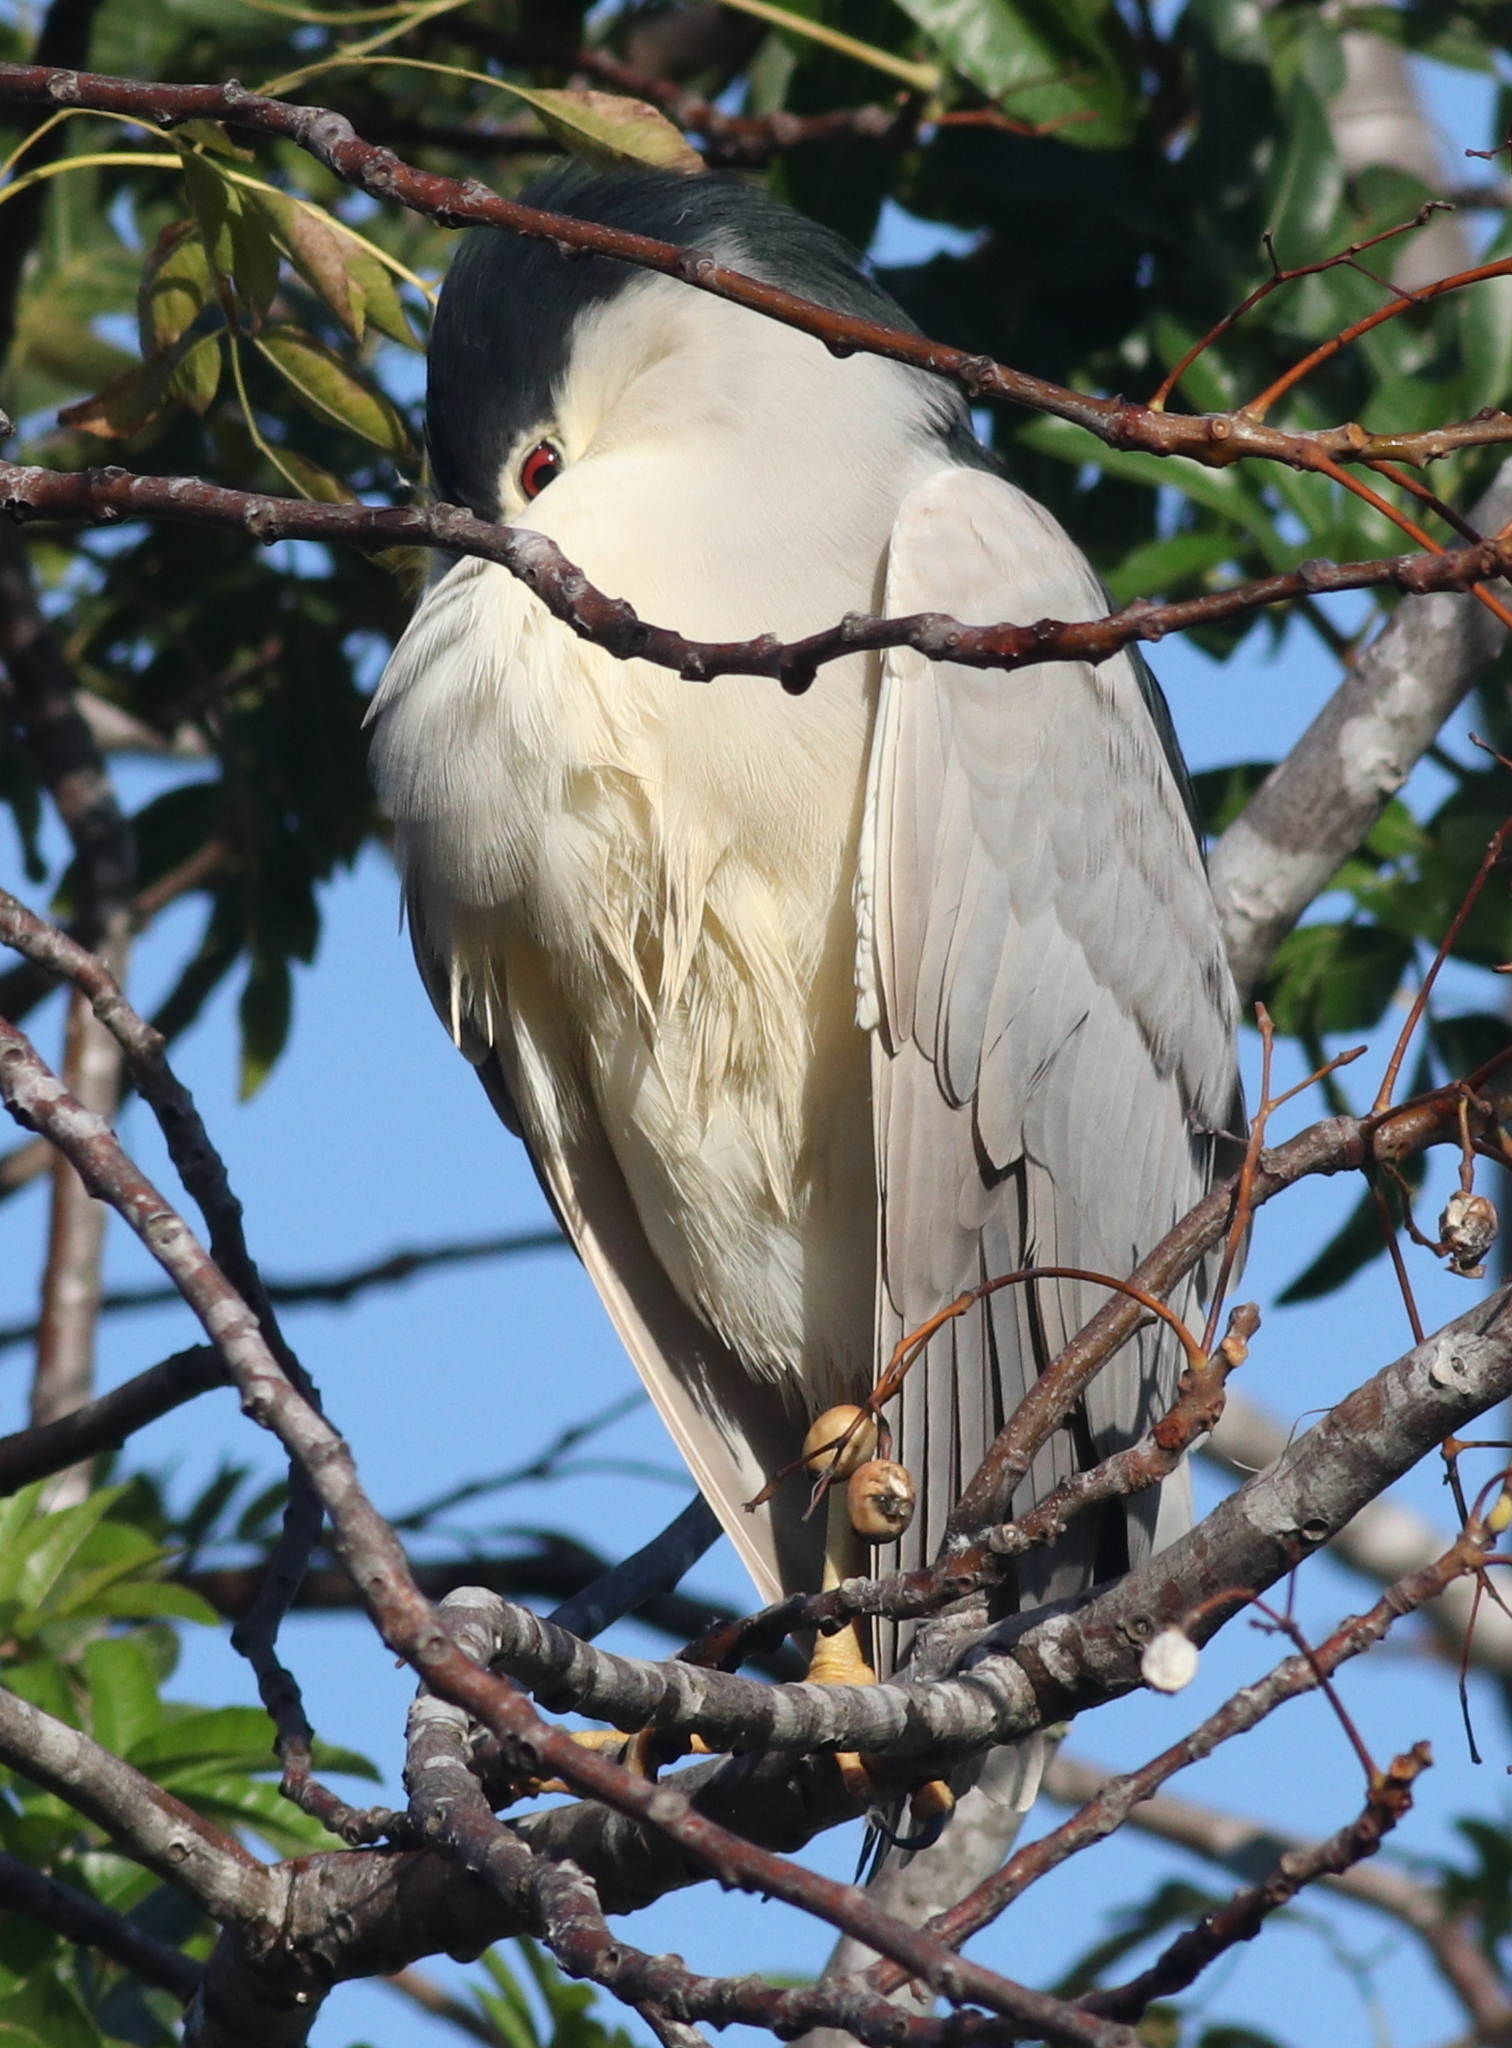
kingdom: Animalia
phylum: Chordata
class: Aves
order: Pelecaniformes
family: Ardeidae
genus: Nycticorax
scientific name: Nycticorax nycticorax
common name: Black-crowned night heron
